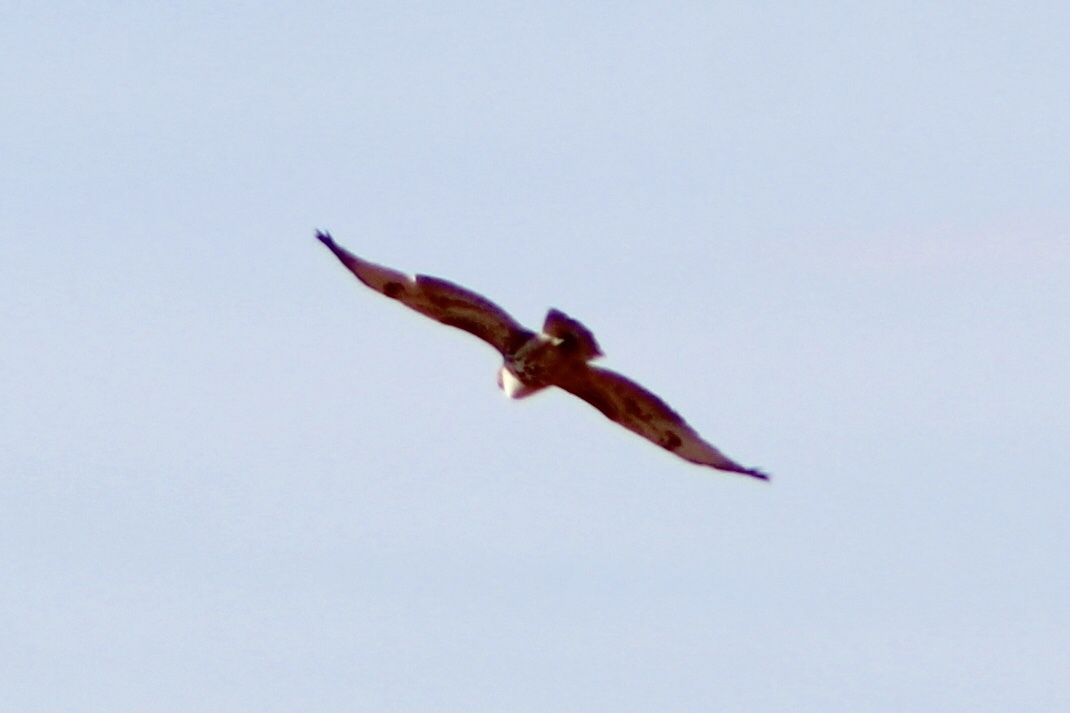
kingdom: Animalia
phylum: Chordata
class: Aves
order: Accipitriformes
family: Accipitridae
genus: Buteo
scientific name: Buteo jamaicensis
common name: Red-tailed hawk
